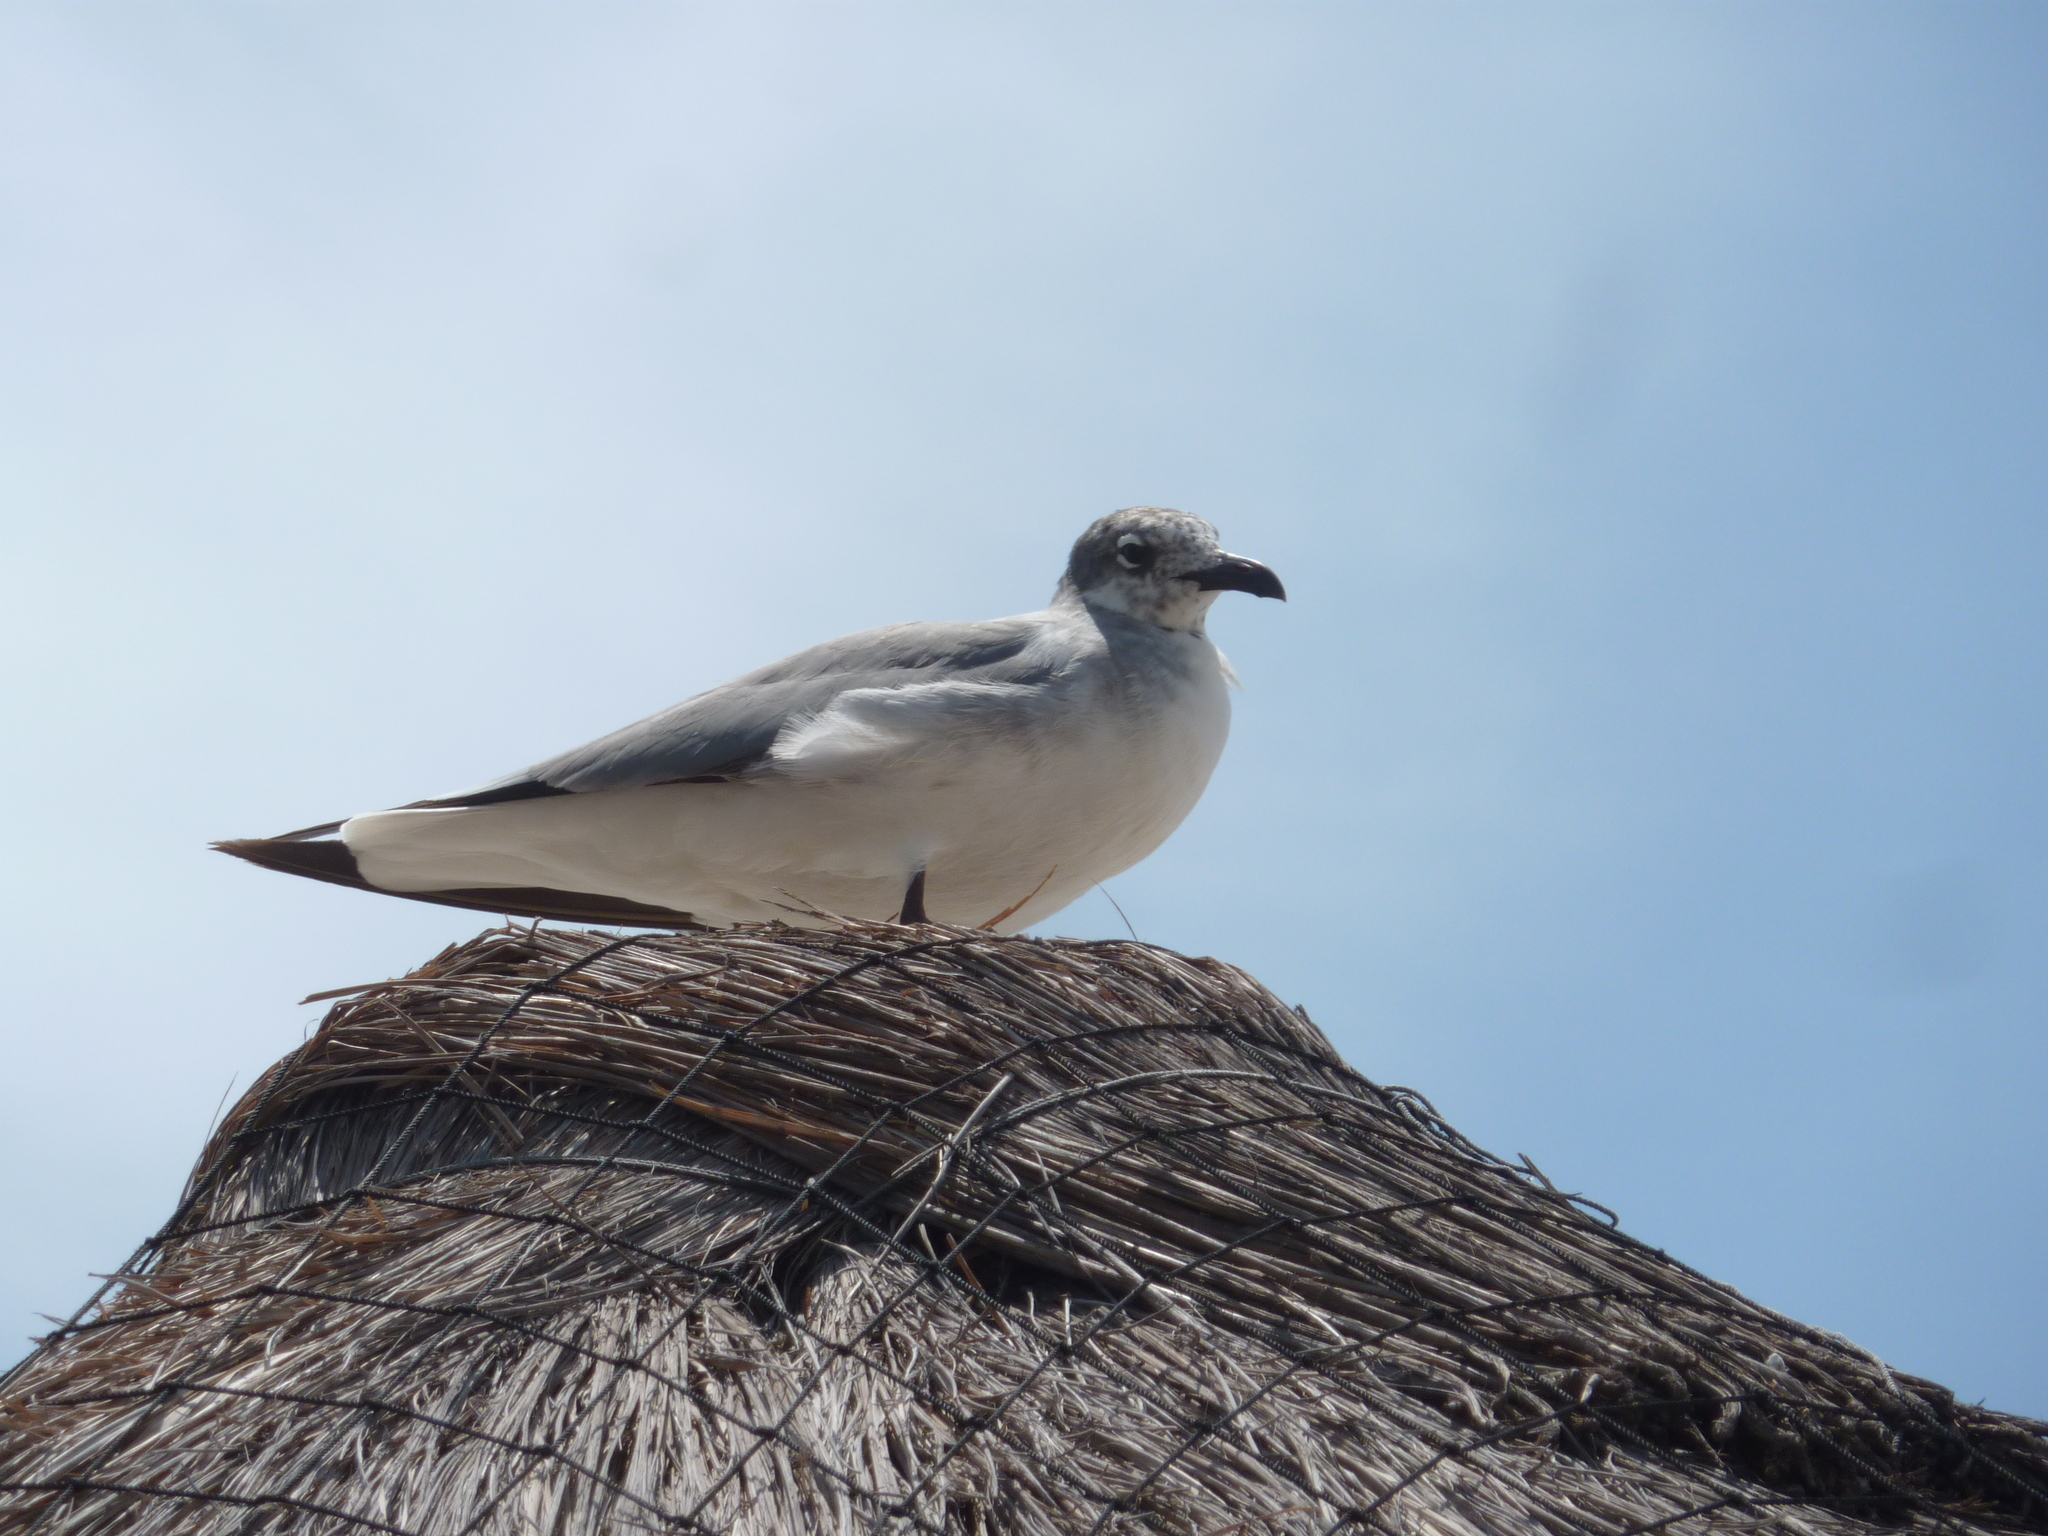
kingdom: Animalia
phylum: Chordata
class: Aves
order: Charadriiformes
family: Laridae
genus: Leucophaeus
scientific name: Leucophaeus atricilla
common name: Laughing gull
